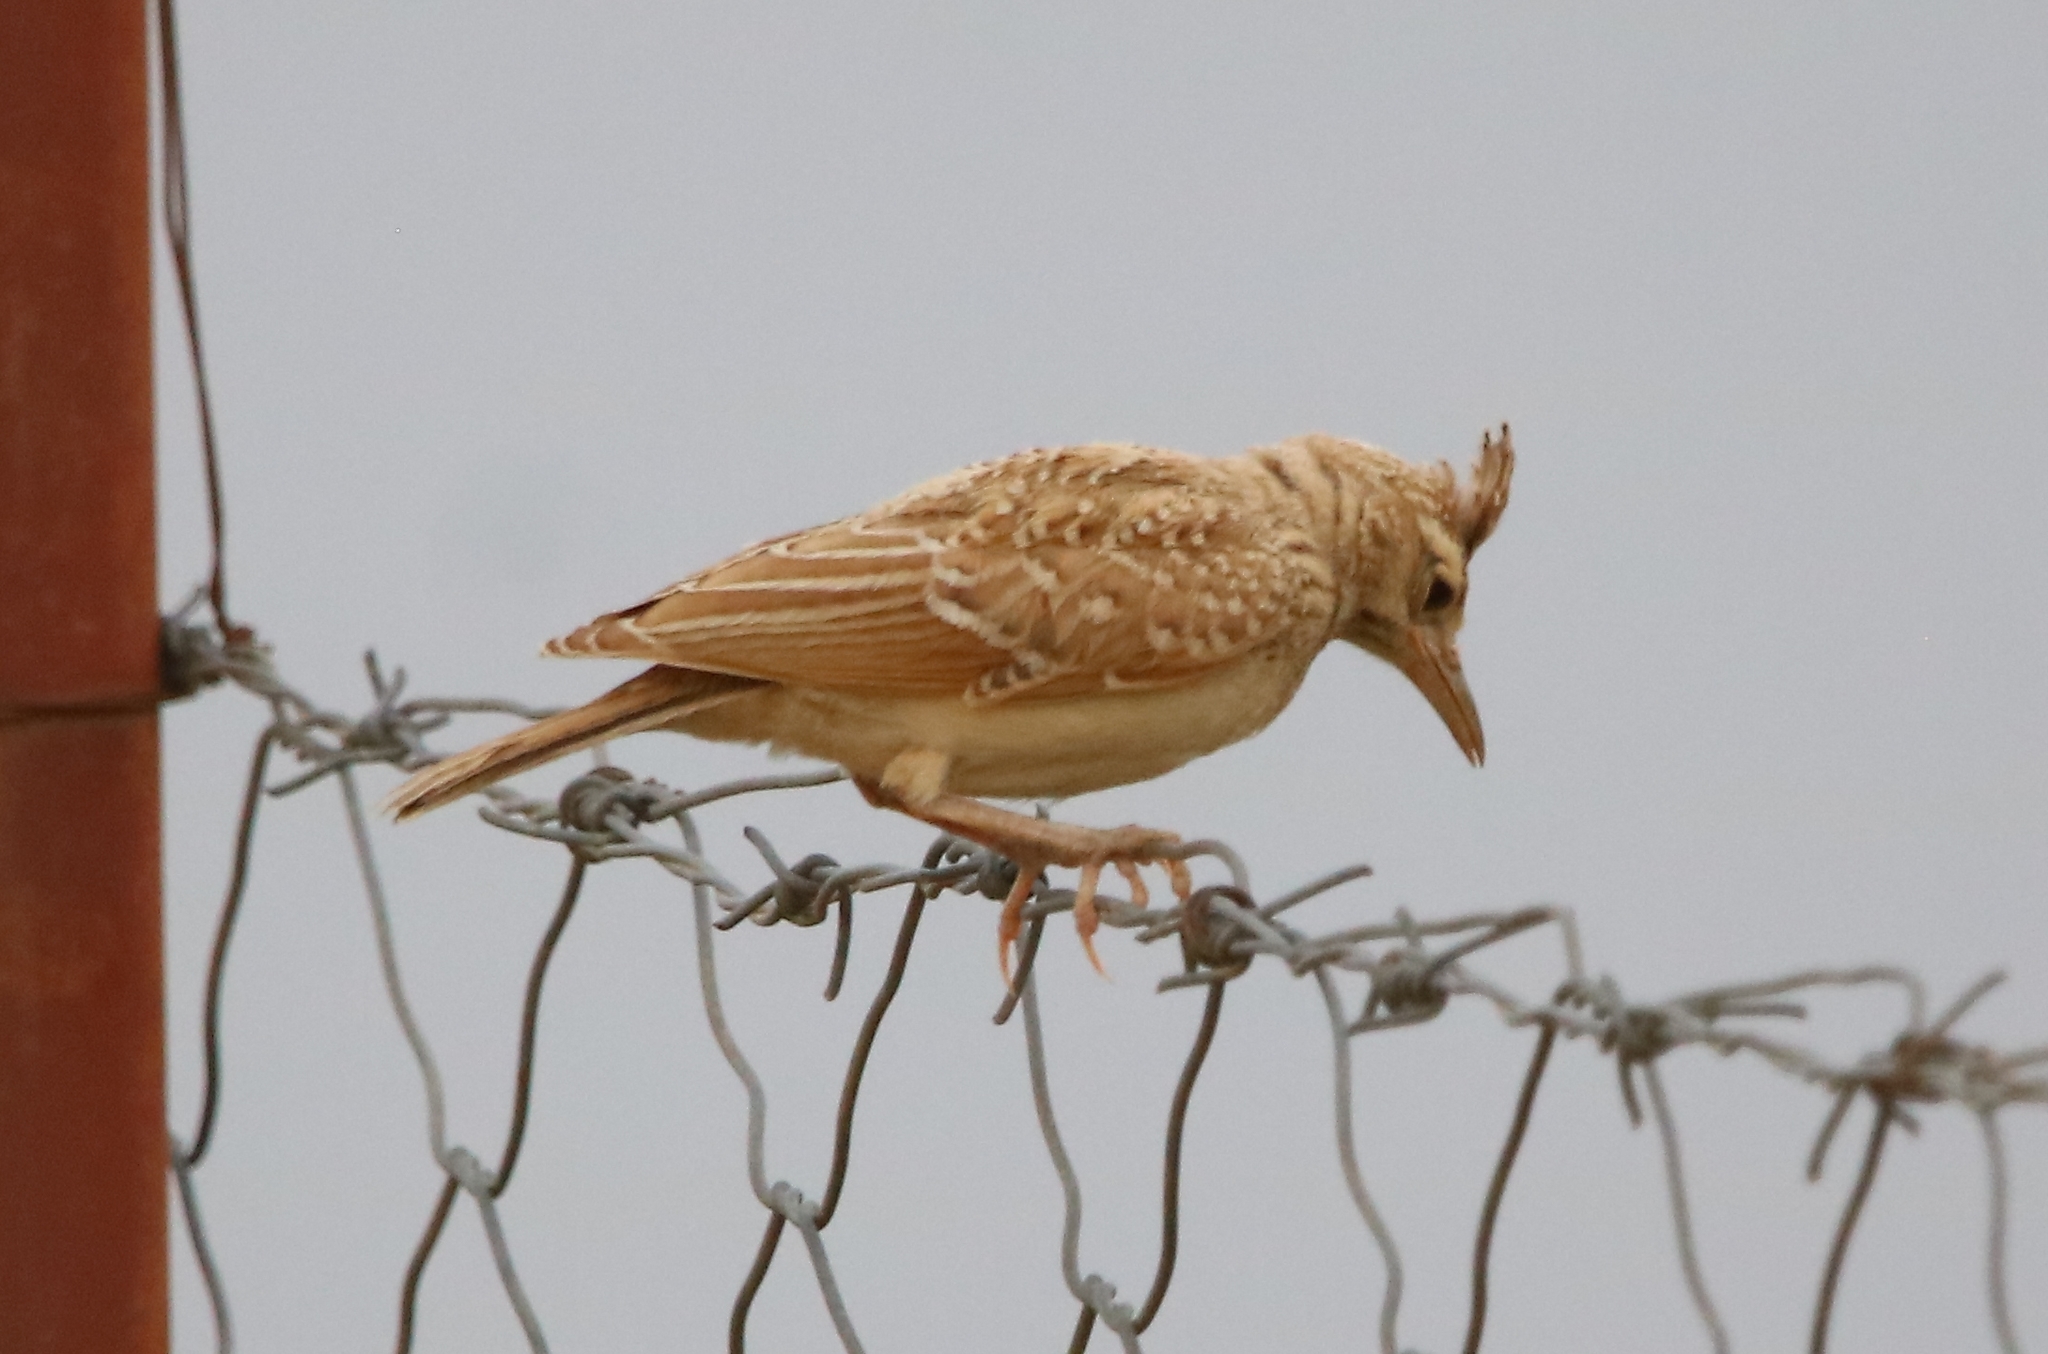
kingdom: Animalia
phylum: Chordata
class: Aves
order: Passeriformes
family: Alaudidae
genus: Galerida
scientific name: Galerida cristata
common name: Crested lark
